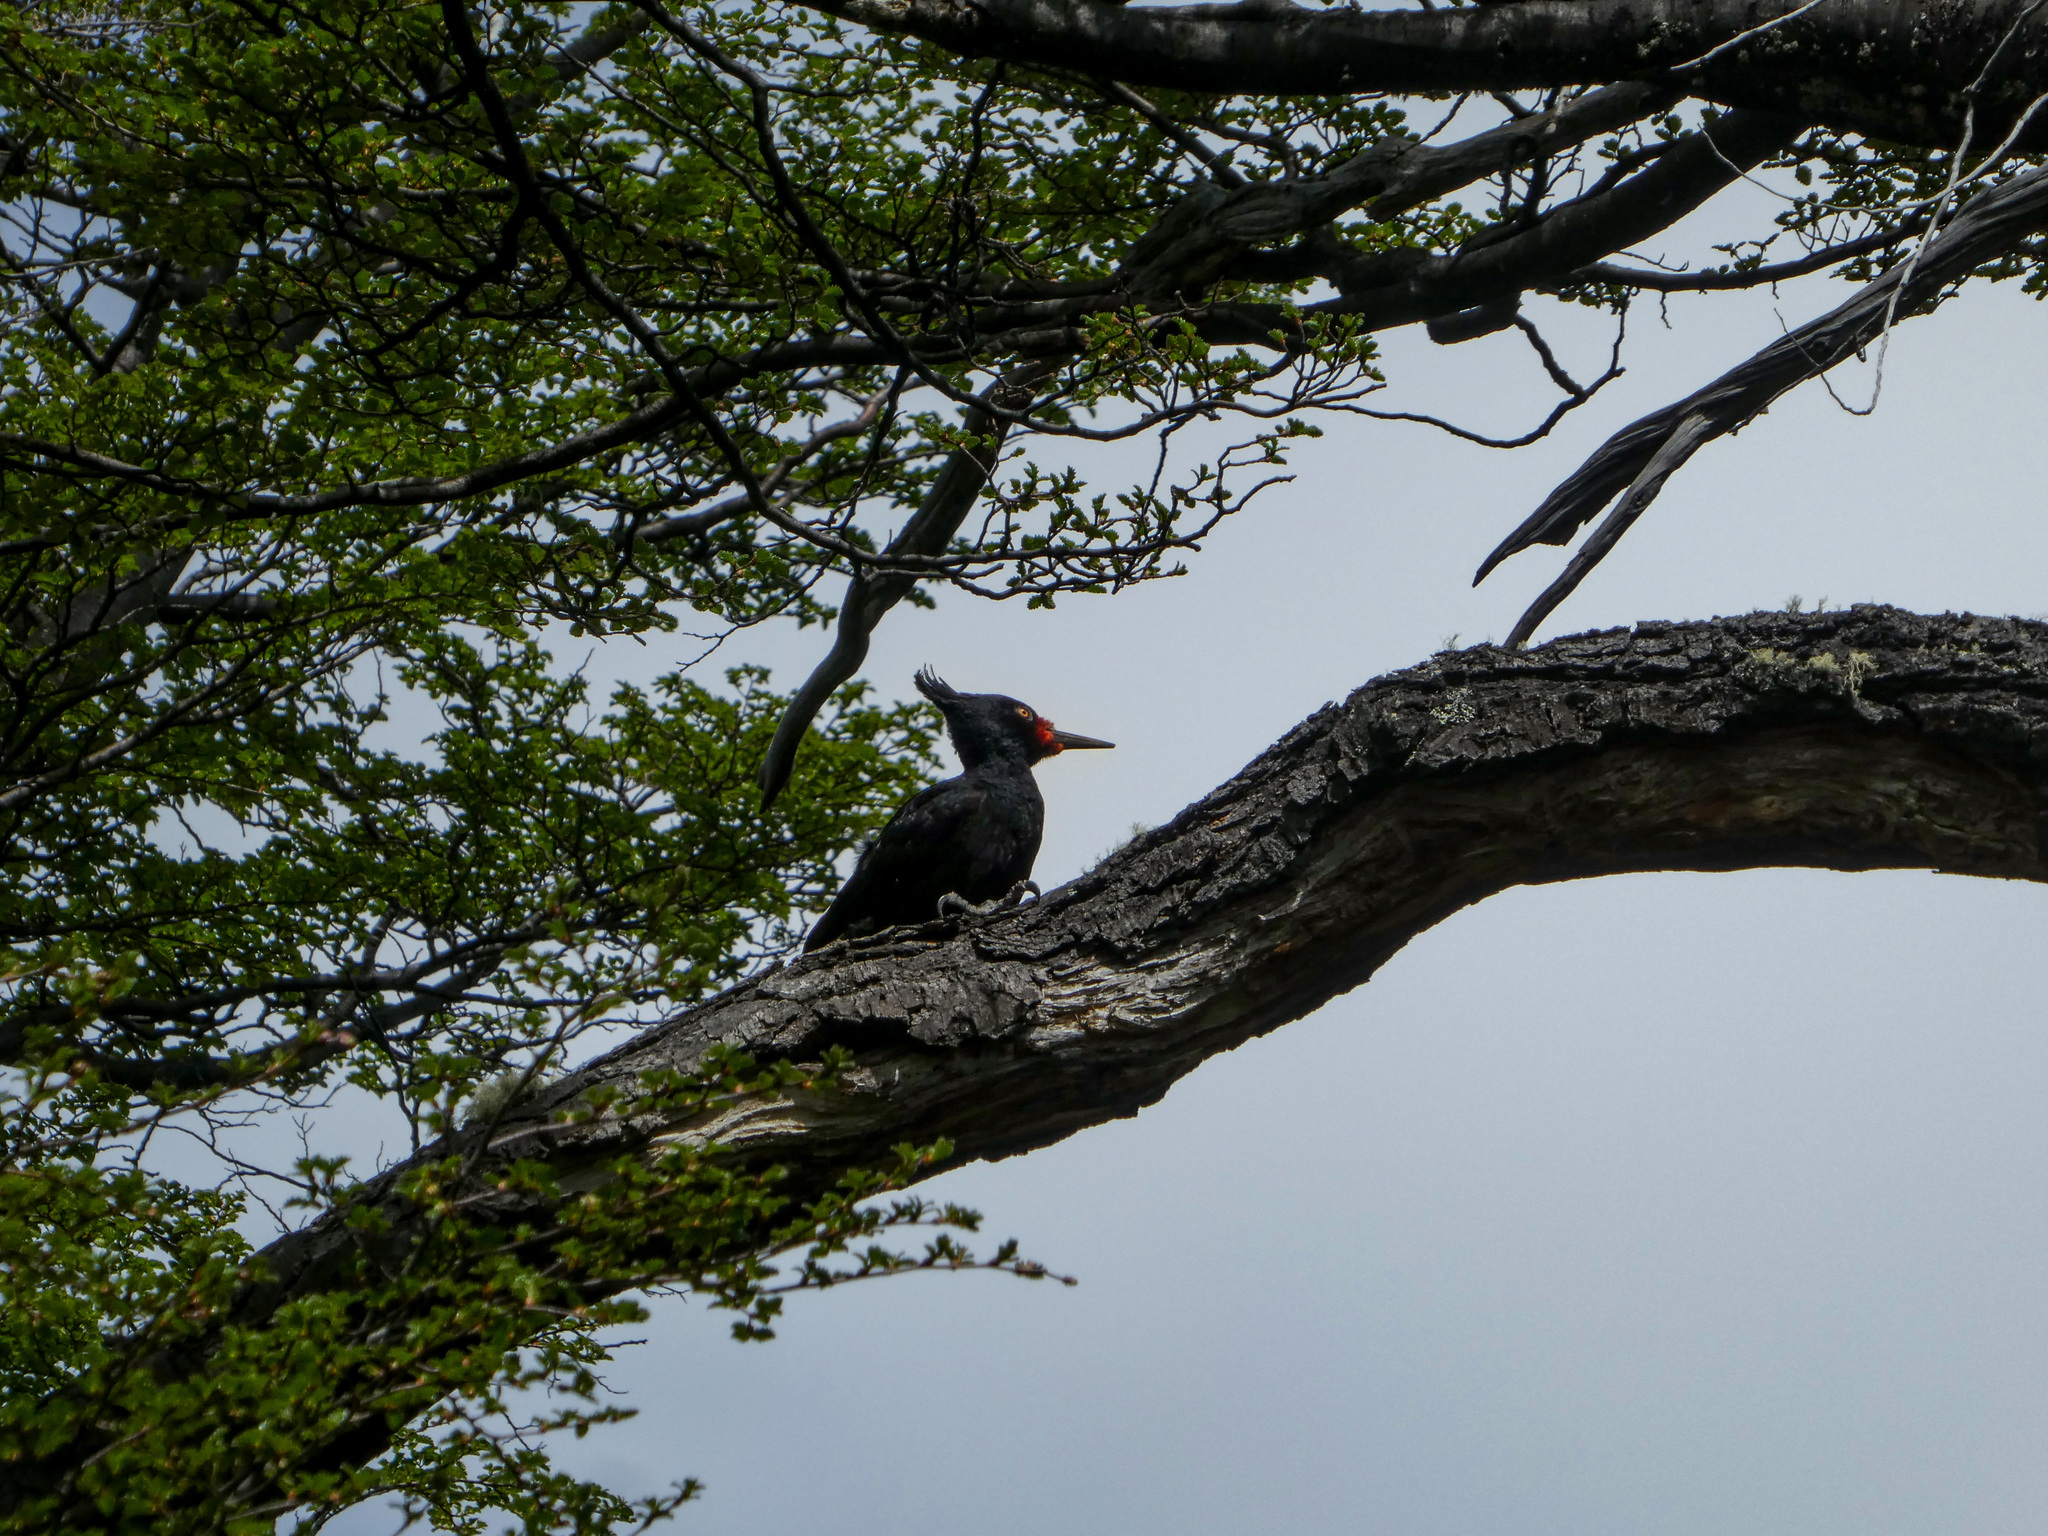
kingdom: Animalia
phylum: Chordata
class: Aves
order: Piciformes
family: Picidae
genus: Campephilus
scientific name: Campephilus magellanicus
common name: Magellanic woodpecker
